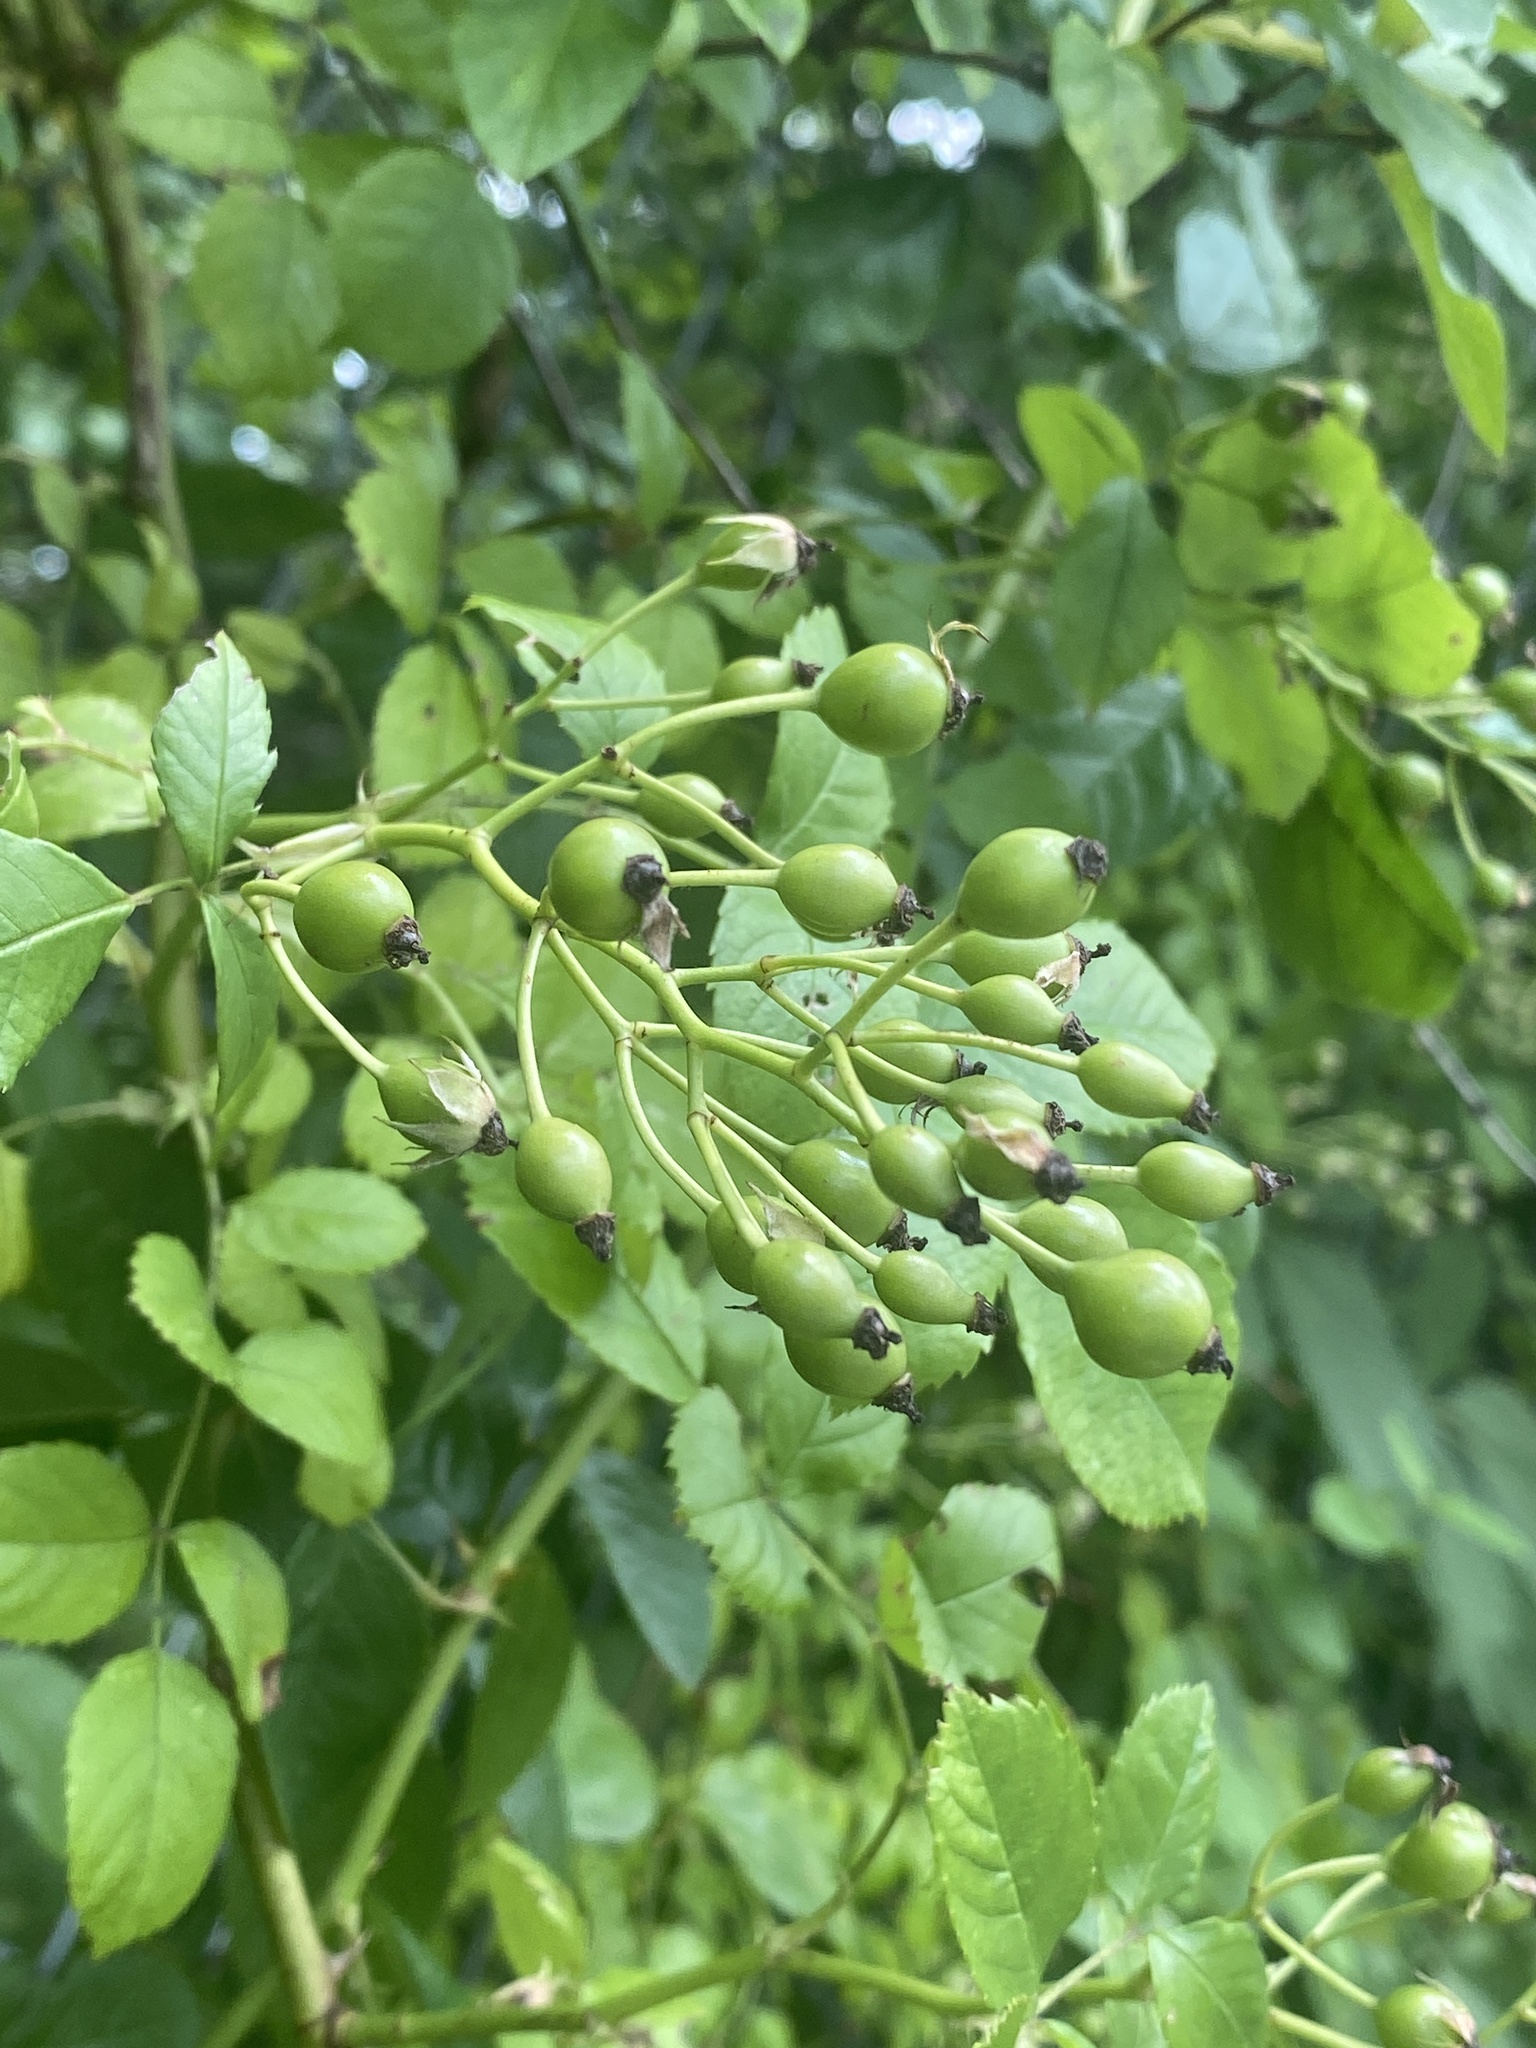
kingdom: Plantae
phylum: Tracheophyta
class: Magnoliopsida
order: Rosales
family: Rosaceae
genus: Rosa
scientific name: Rosa multiflora
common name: Multiflora rose
